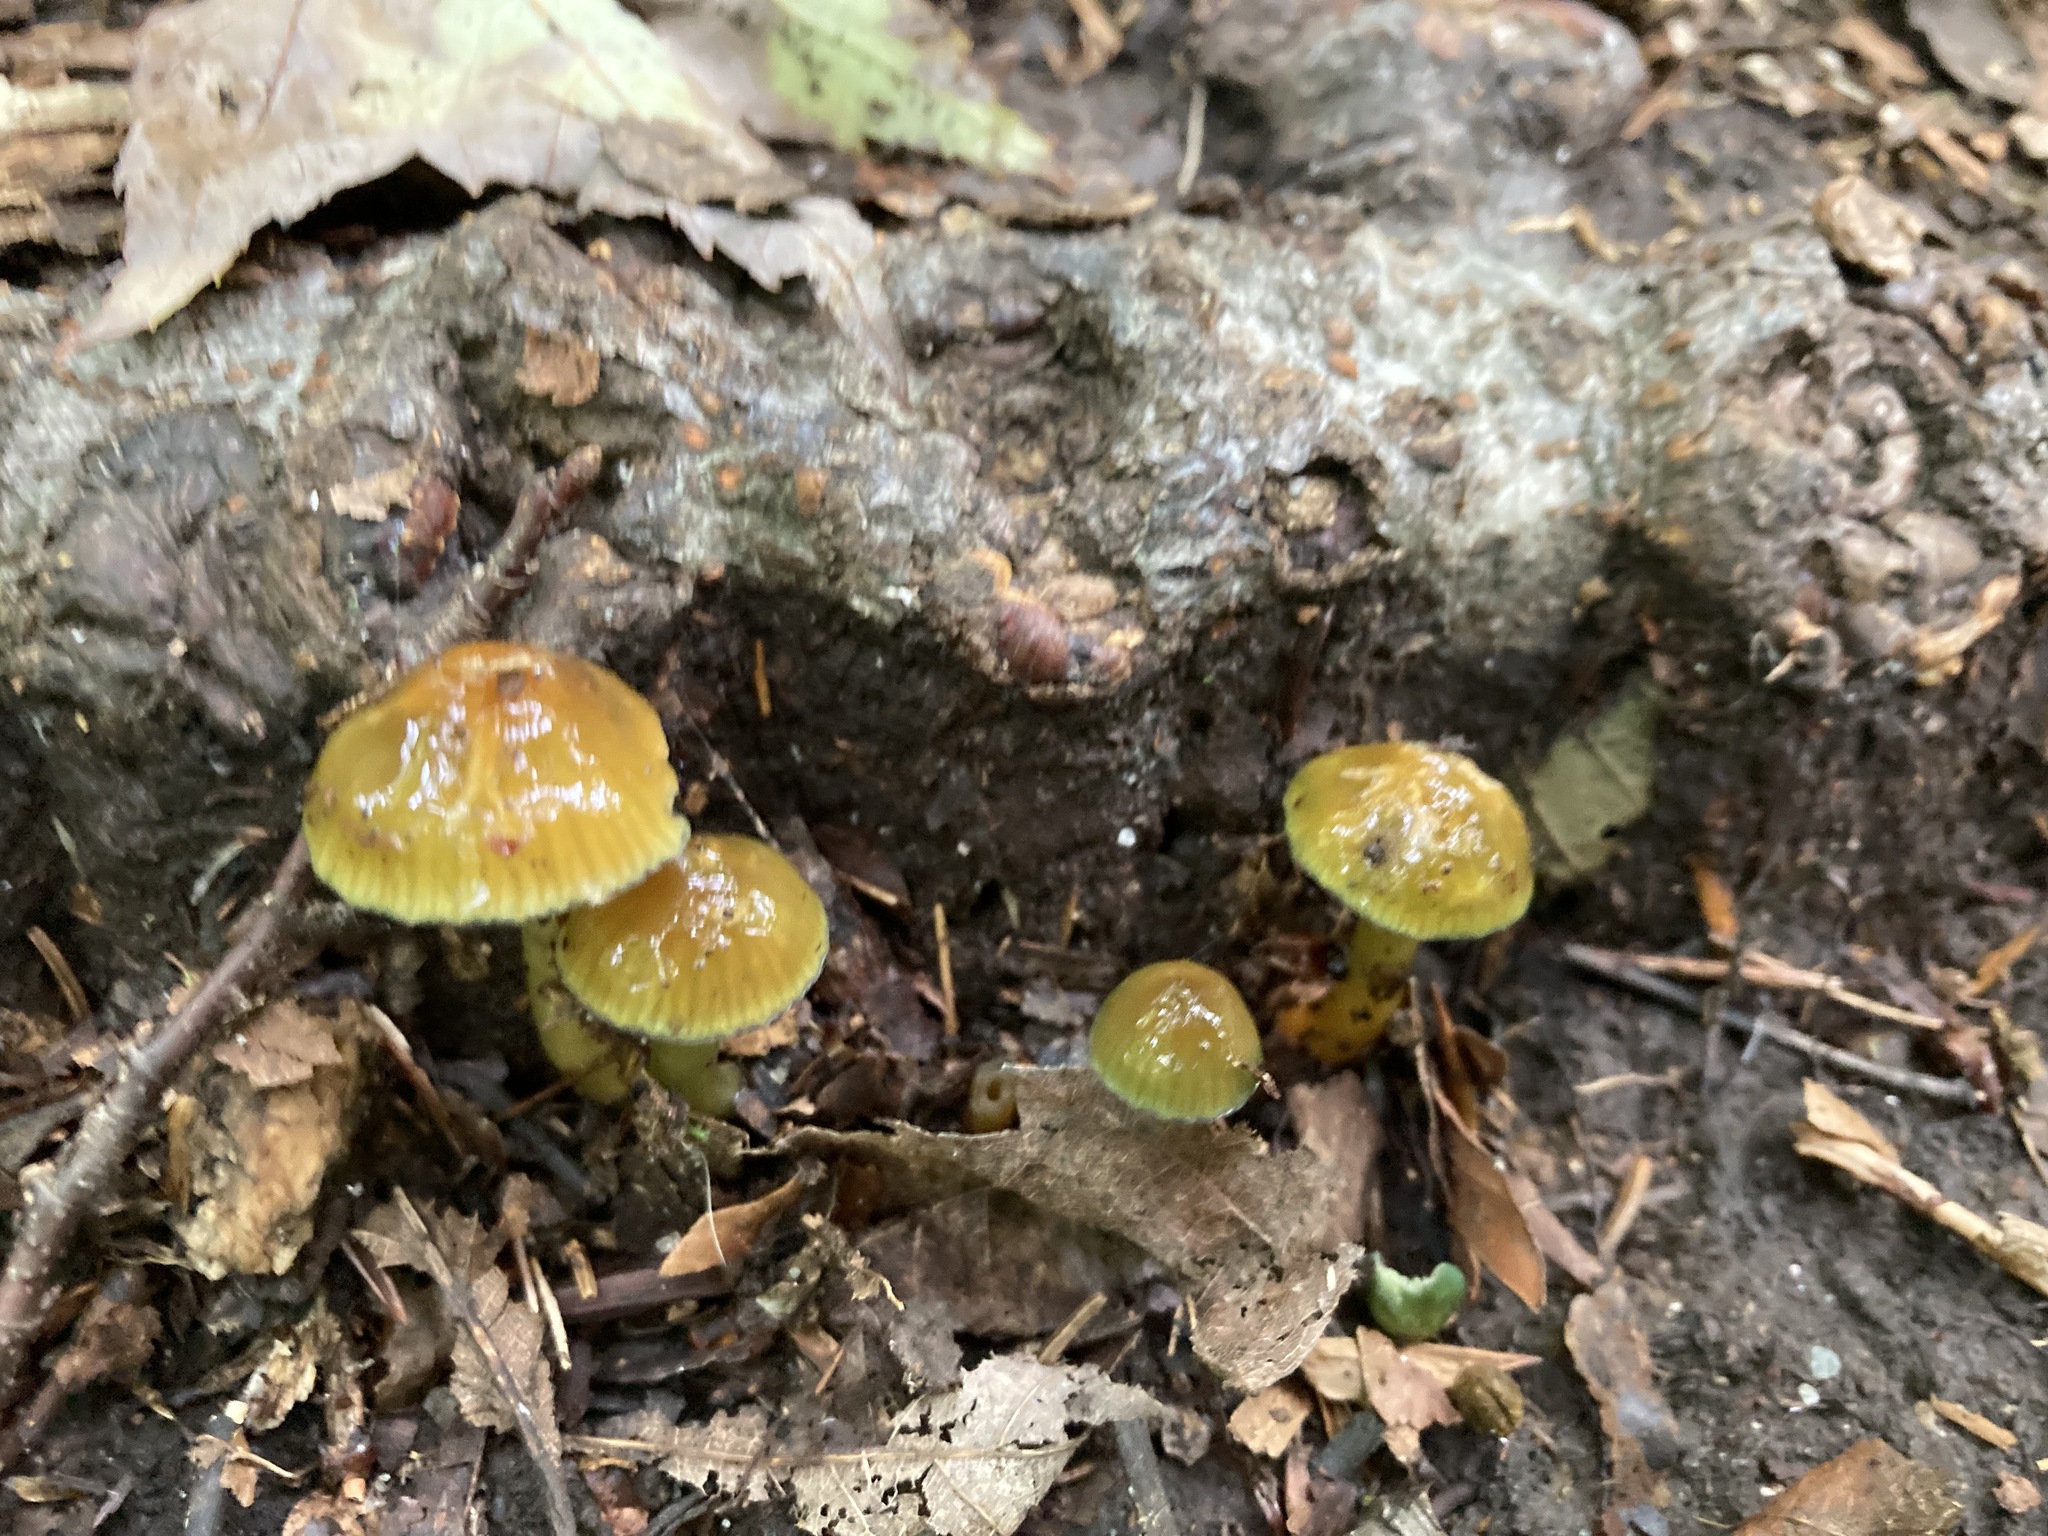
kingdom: Fungi
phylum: Basidiomycota
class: Agaricomycetes
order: Agaricales
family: Hygrophoraceae
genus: Gliophorus
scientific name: Gliophorus psittacinus
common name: Parrot wax-cap
